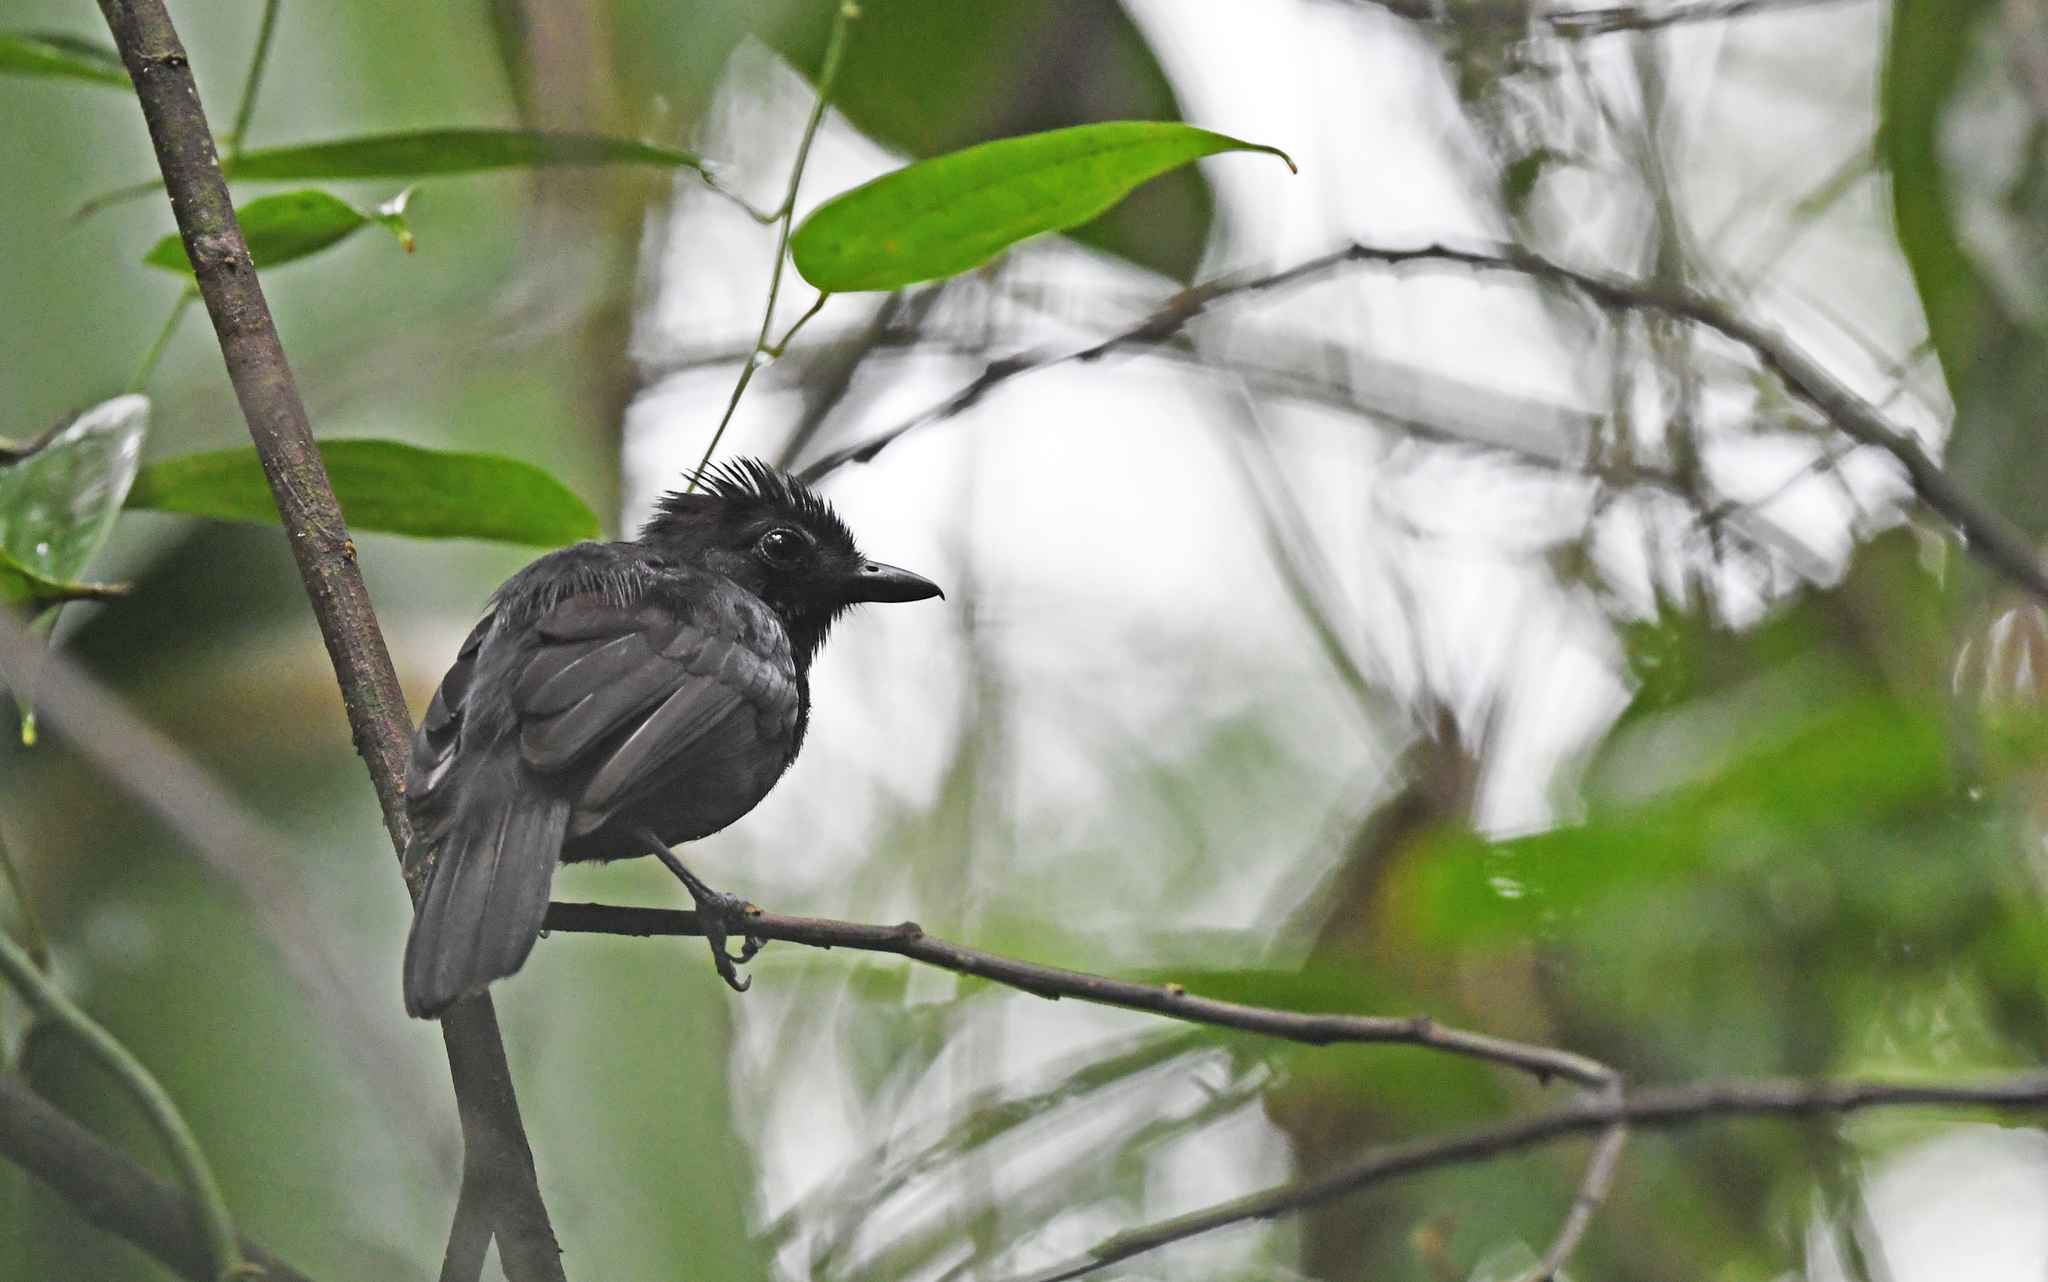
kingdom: Animalia
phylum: Chordata
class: Aves
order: Passeriformes
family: Thamnophilidae
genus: Thamnophilus
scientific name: Thamnophilus nigriceps
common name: Black antshrike
